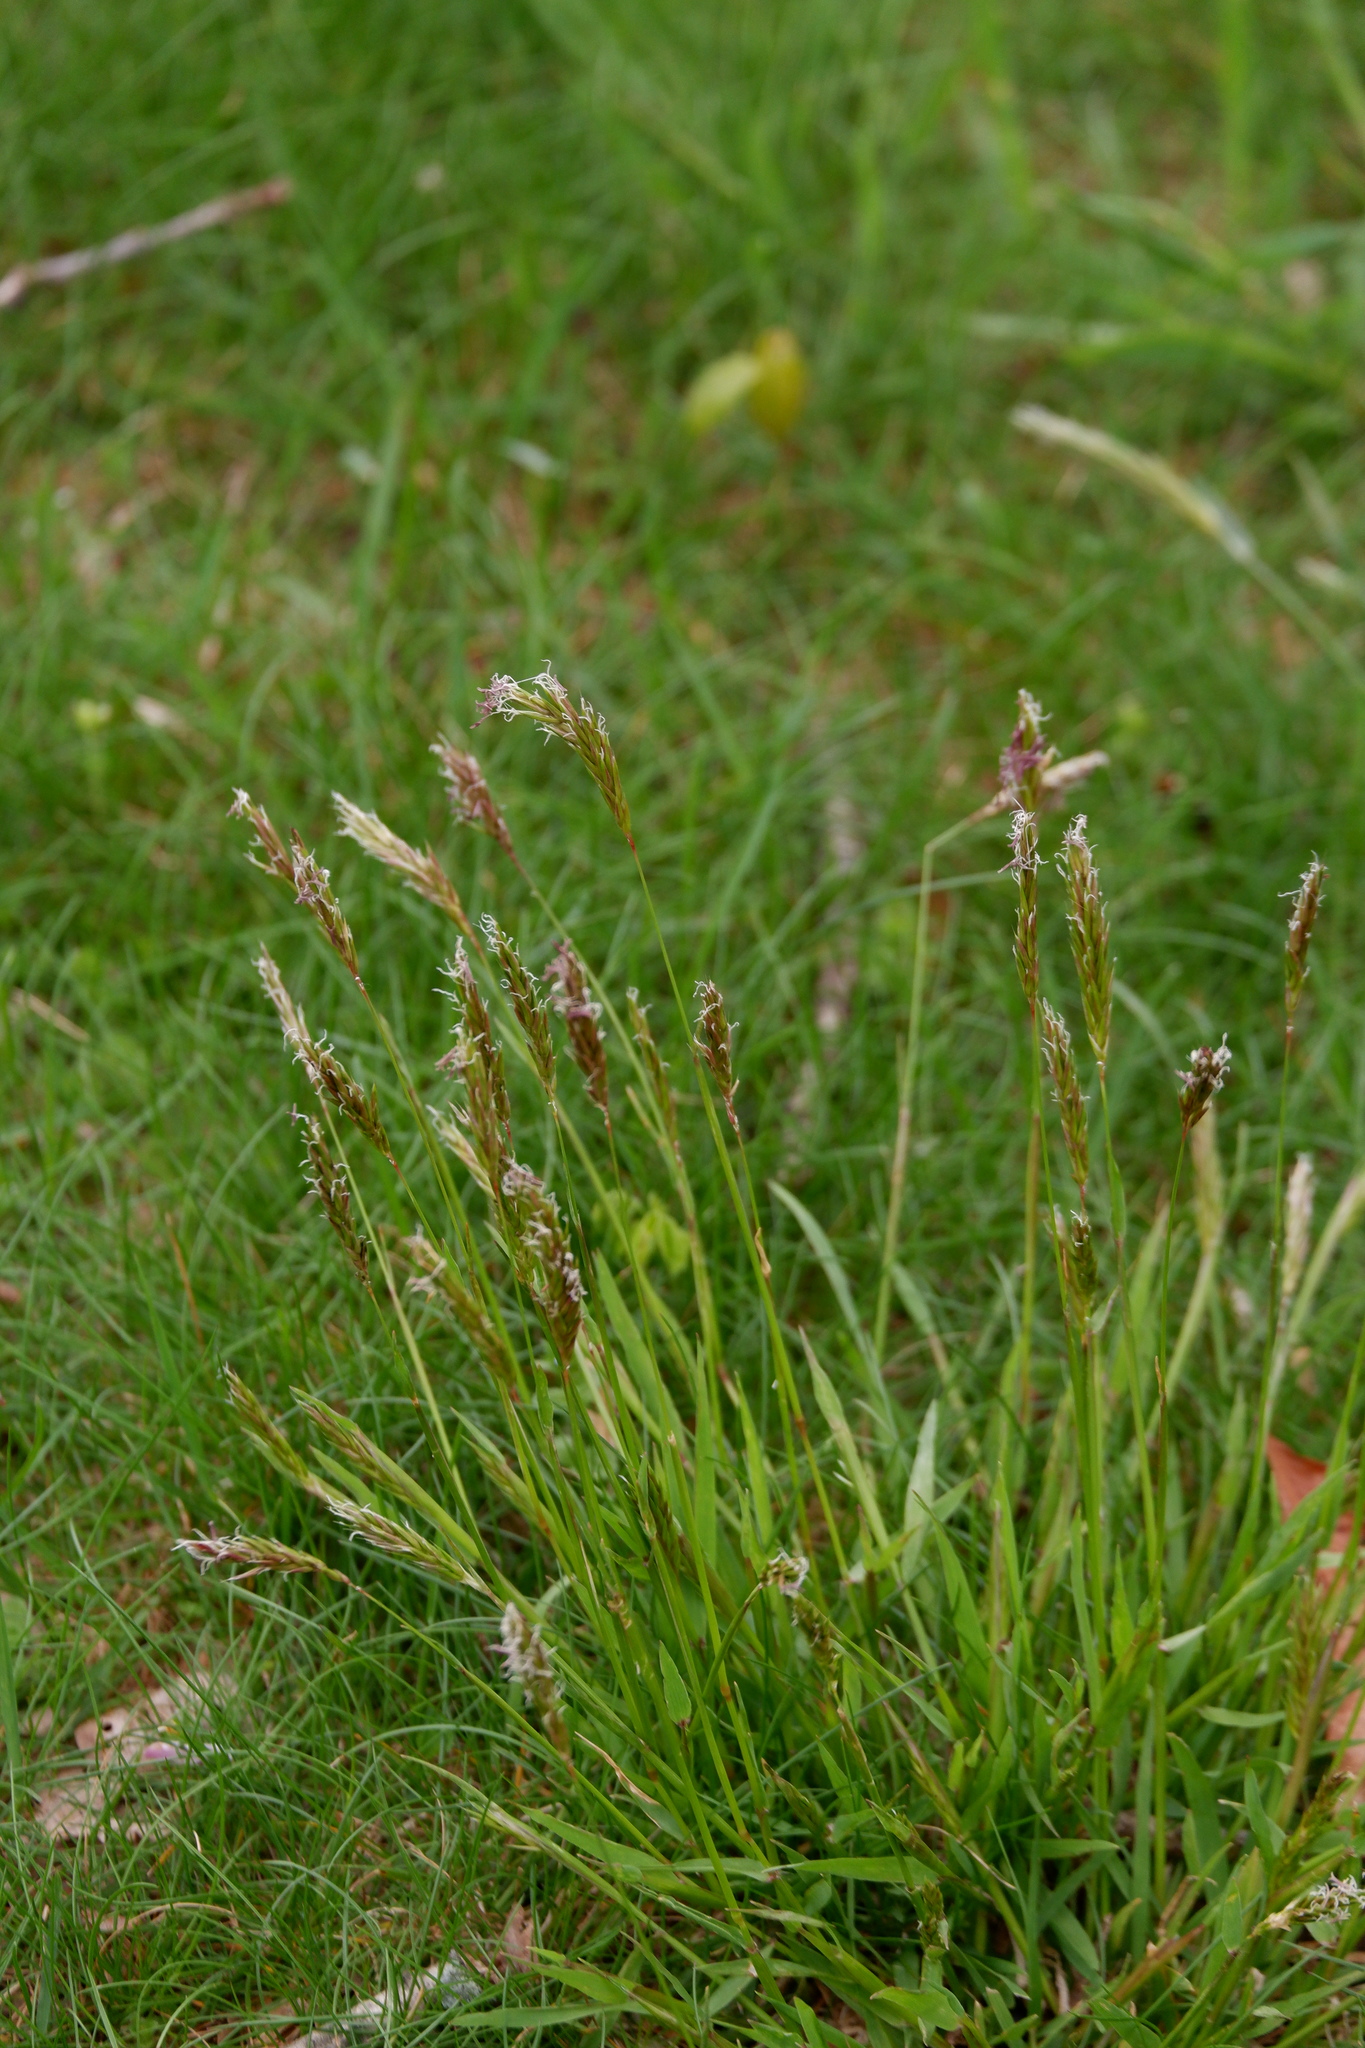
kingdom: Plantae
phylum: Tracheophyta
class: Liliopsida
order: Poales
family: Poaceae
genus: Anthoxanthum
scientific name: Anthoxanthum odoratum
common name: Sweet vernalgrass
